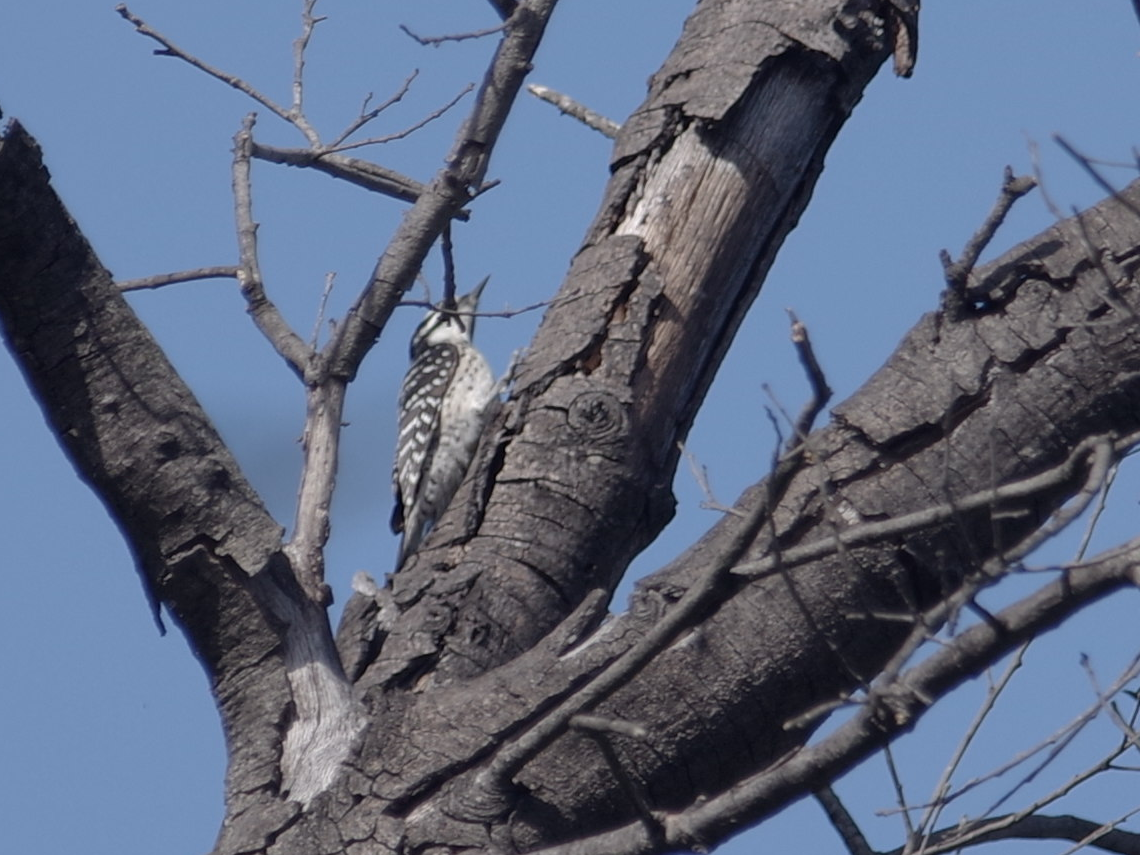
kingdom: Animalia
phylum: Chordata
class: Aves
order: Piciformes
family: Picidae
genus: Dryobates
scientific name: Dryobates nuttallii
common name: Nuttall's woodpecker
